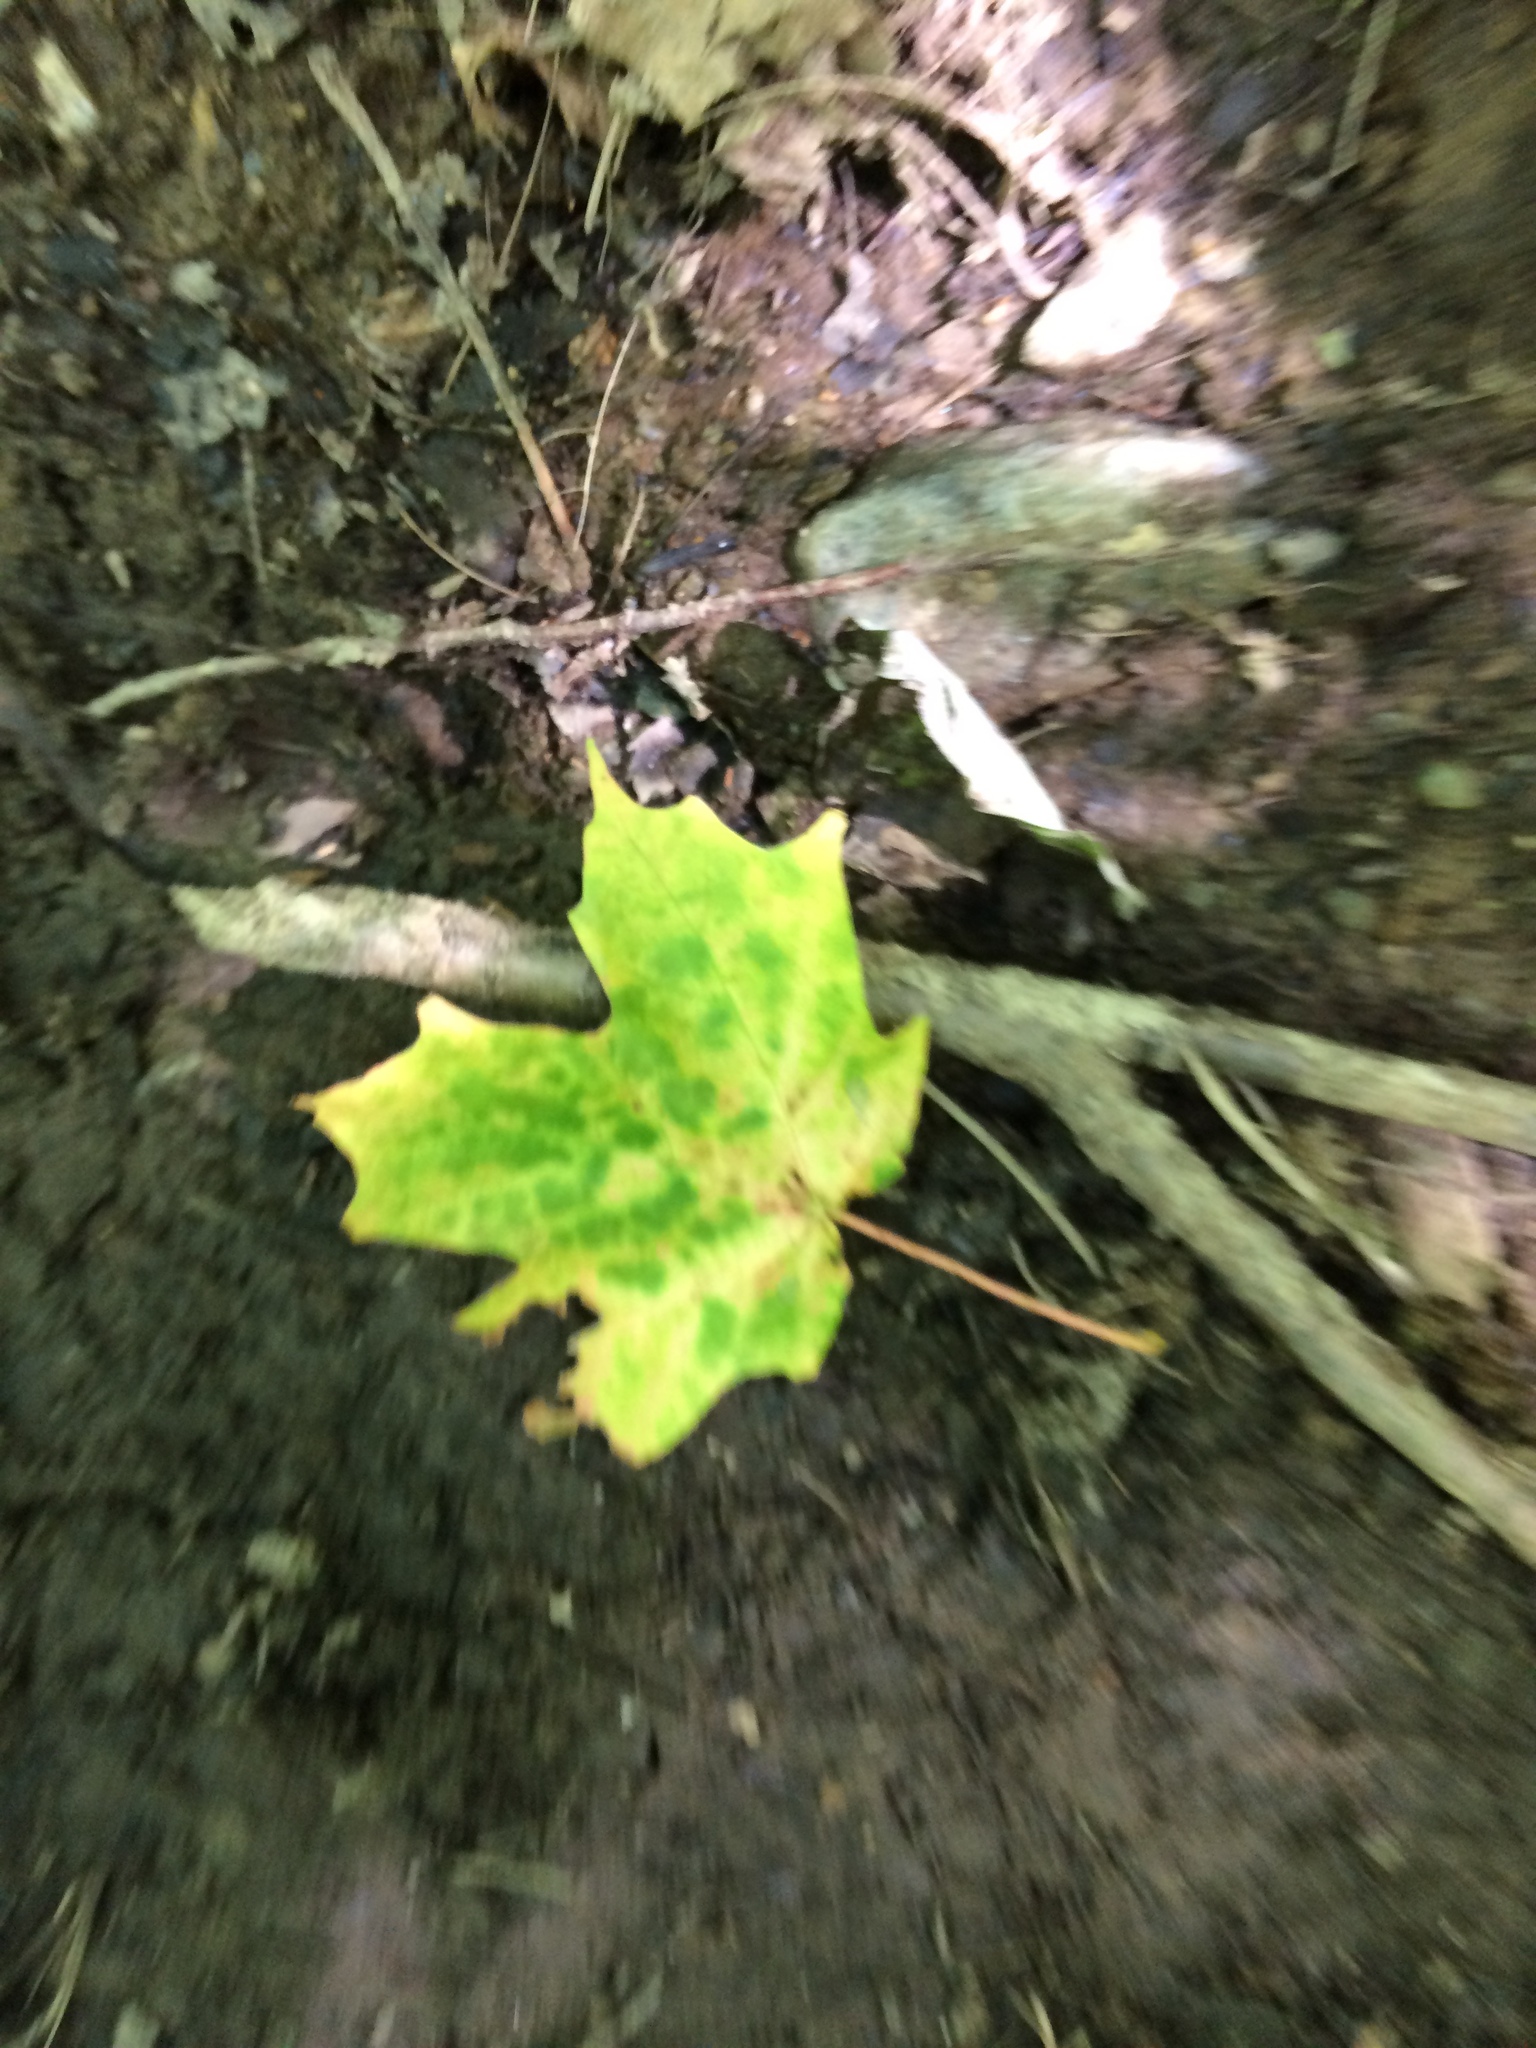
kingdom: Plantae
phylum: Tracheophyta
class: Magnoliopsida
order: Sapindales
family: Sapindaceae
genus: Acer
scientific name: Acer saccharum
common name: Sugar maple
